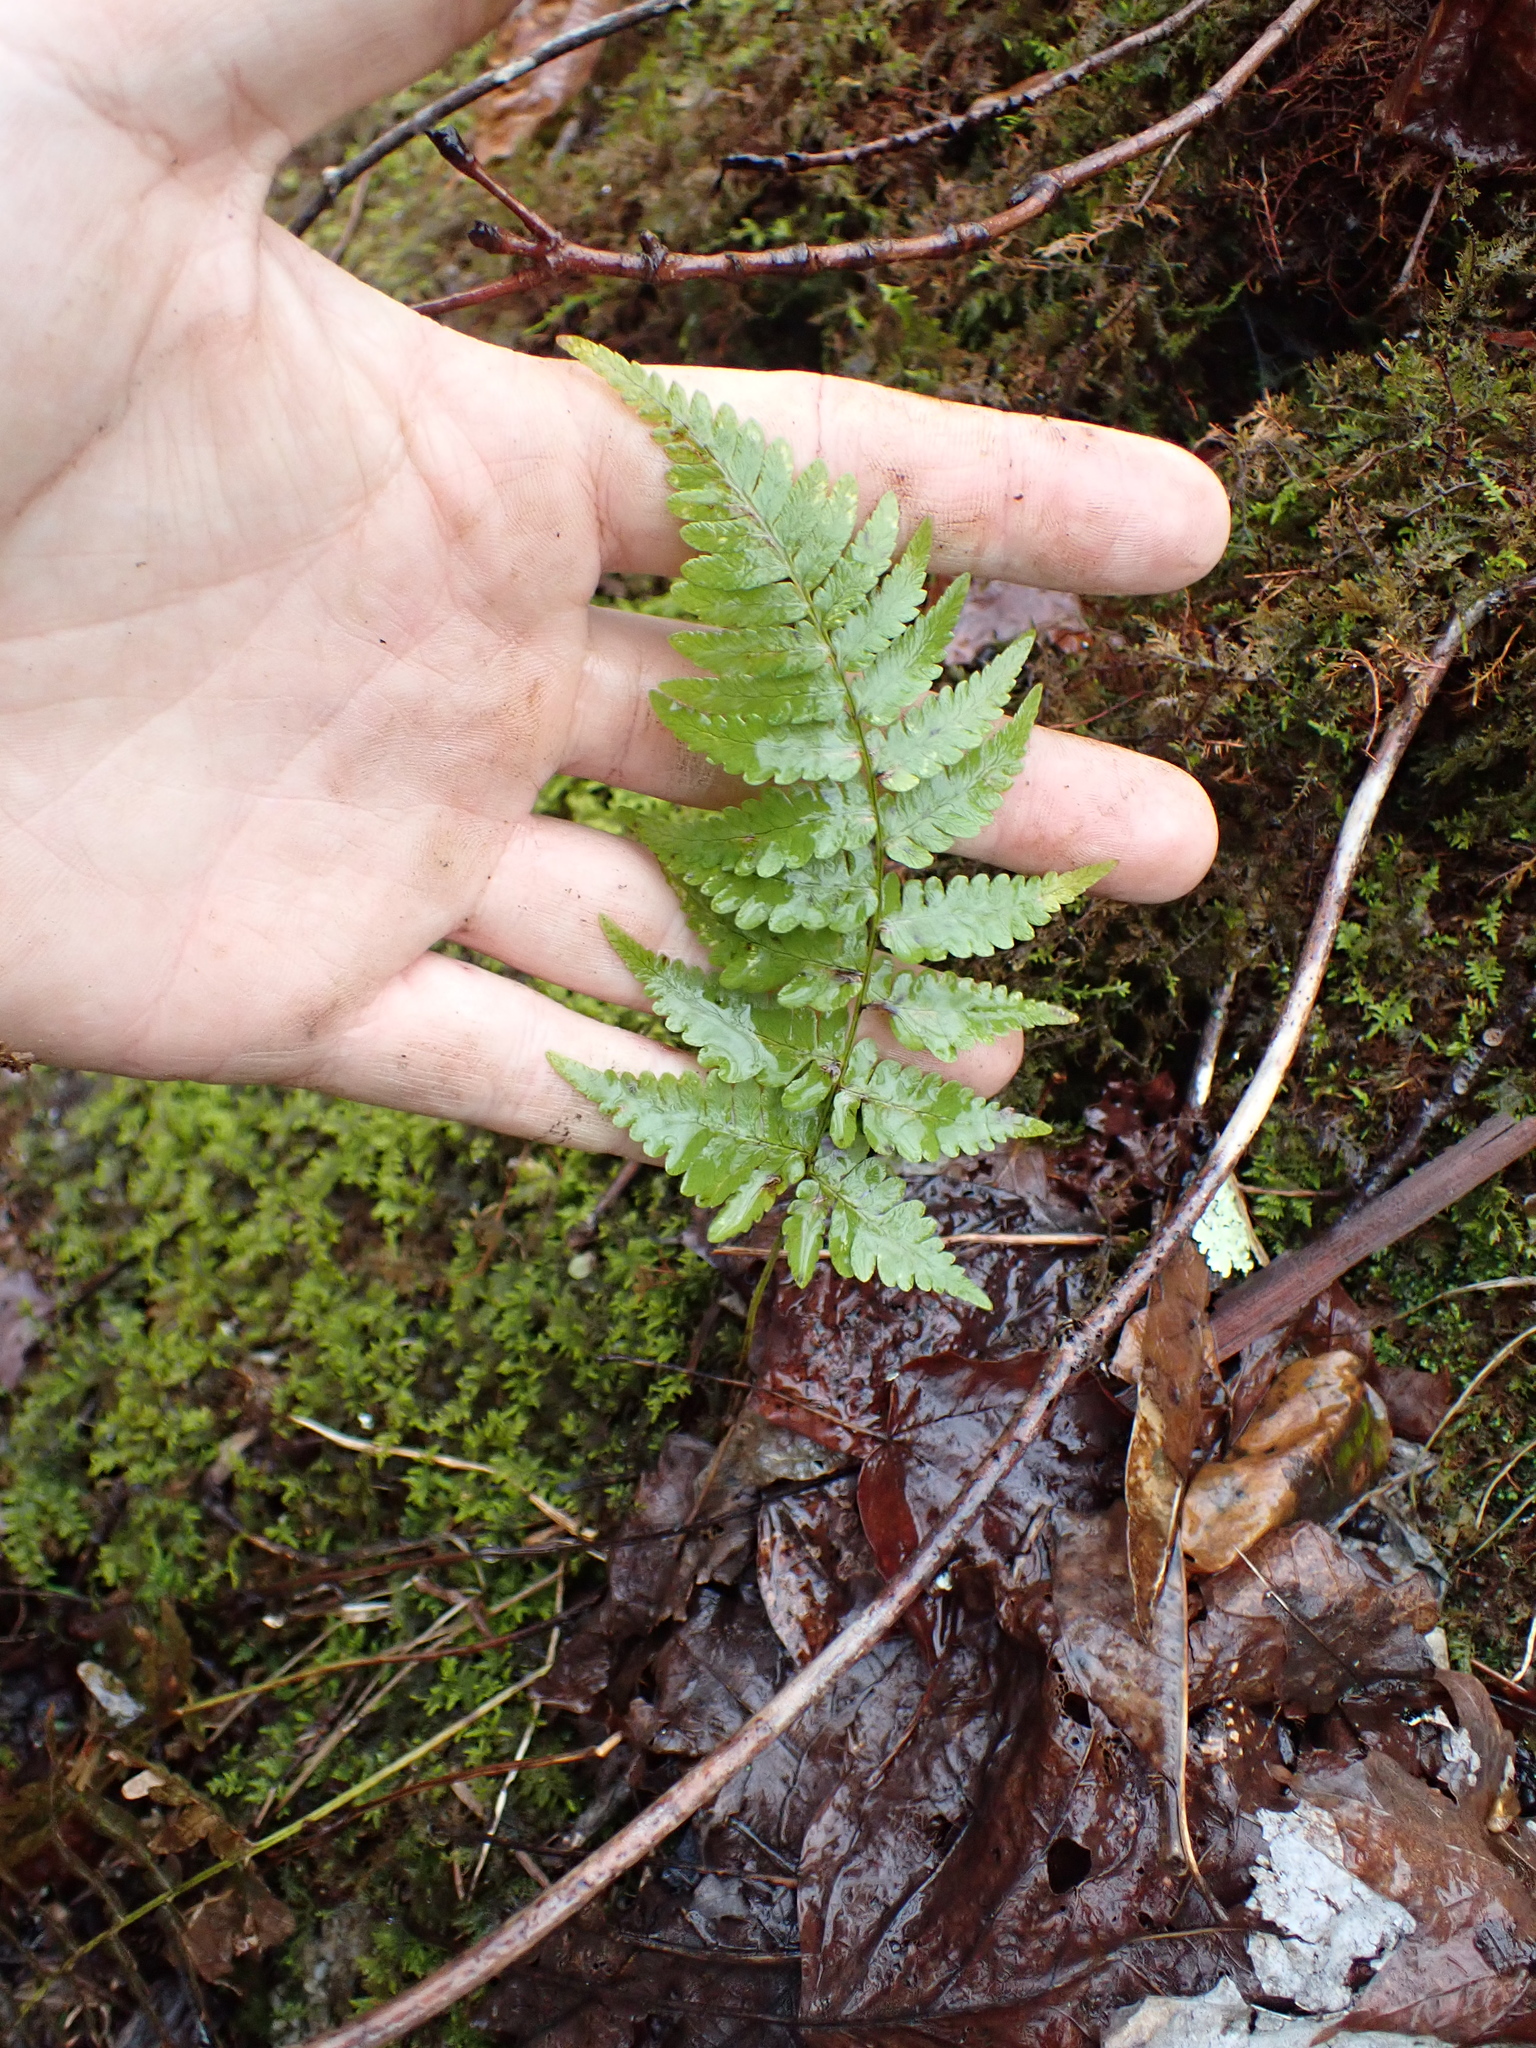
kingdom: Plantae
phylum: Tracheophyta
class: Polypodiopsida
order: Polypodiales
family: Dryopteridaceae
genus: Dryopteris
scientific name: Dryopteris marginalis
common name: Marginal wood fern
